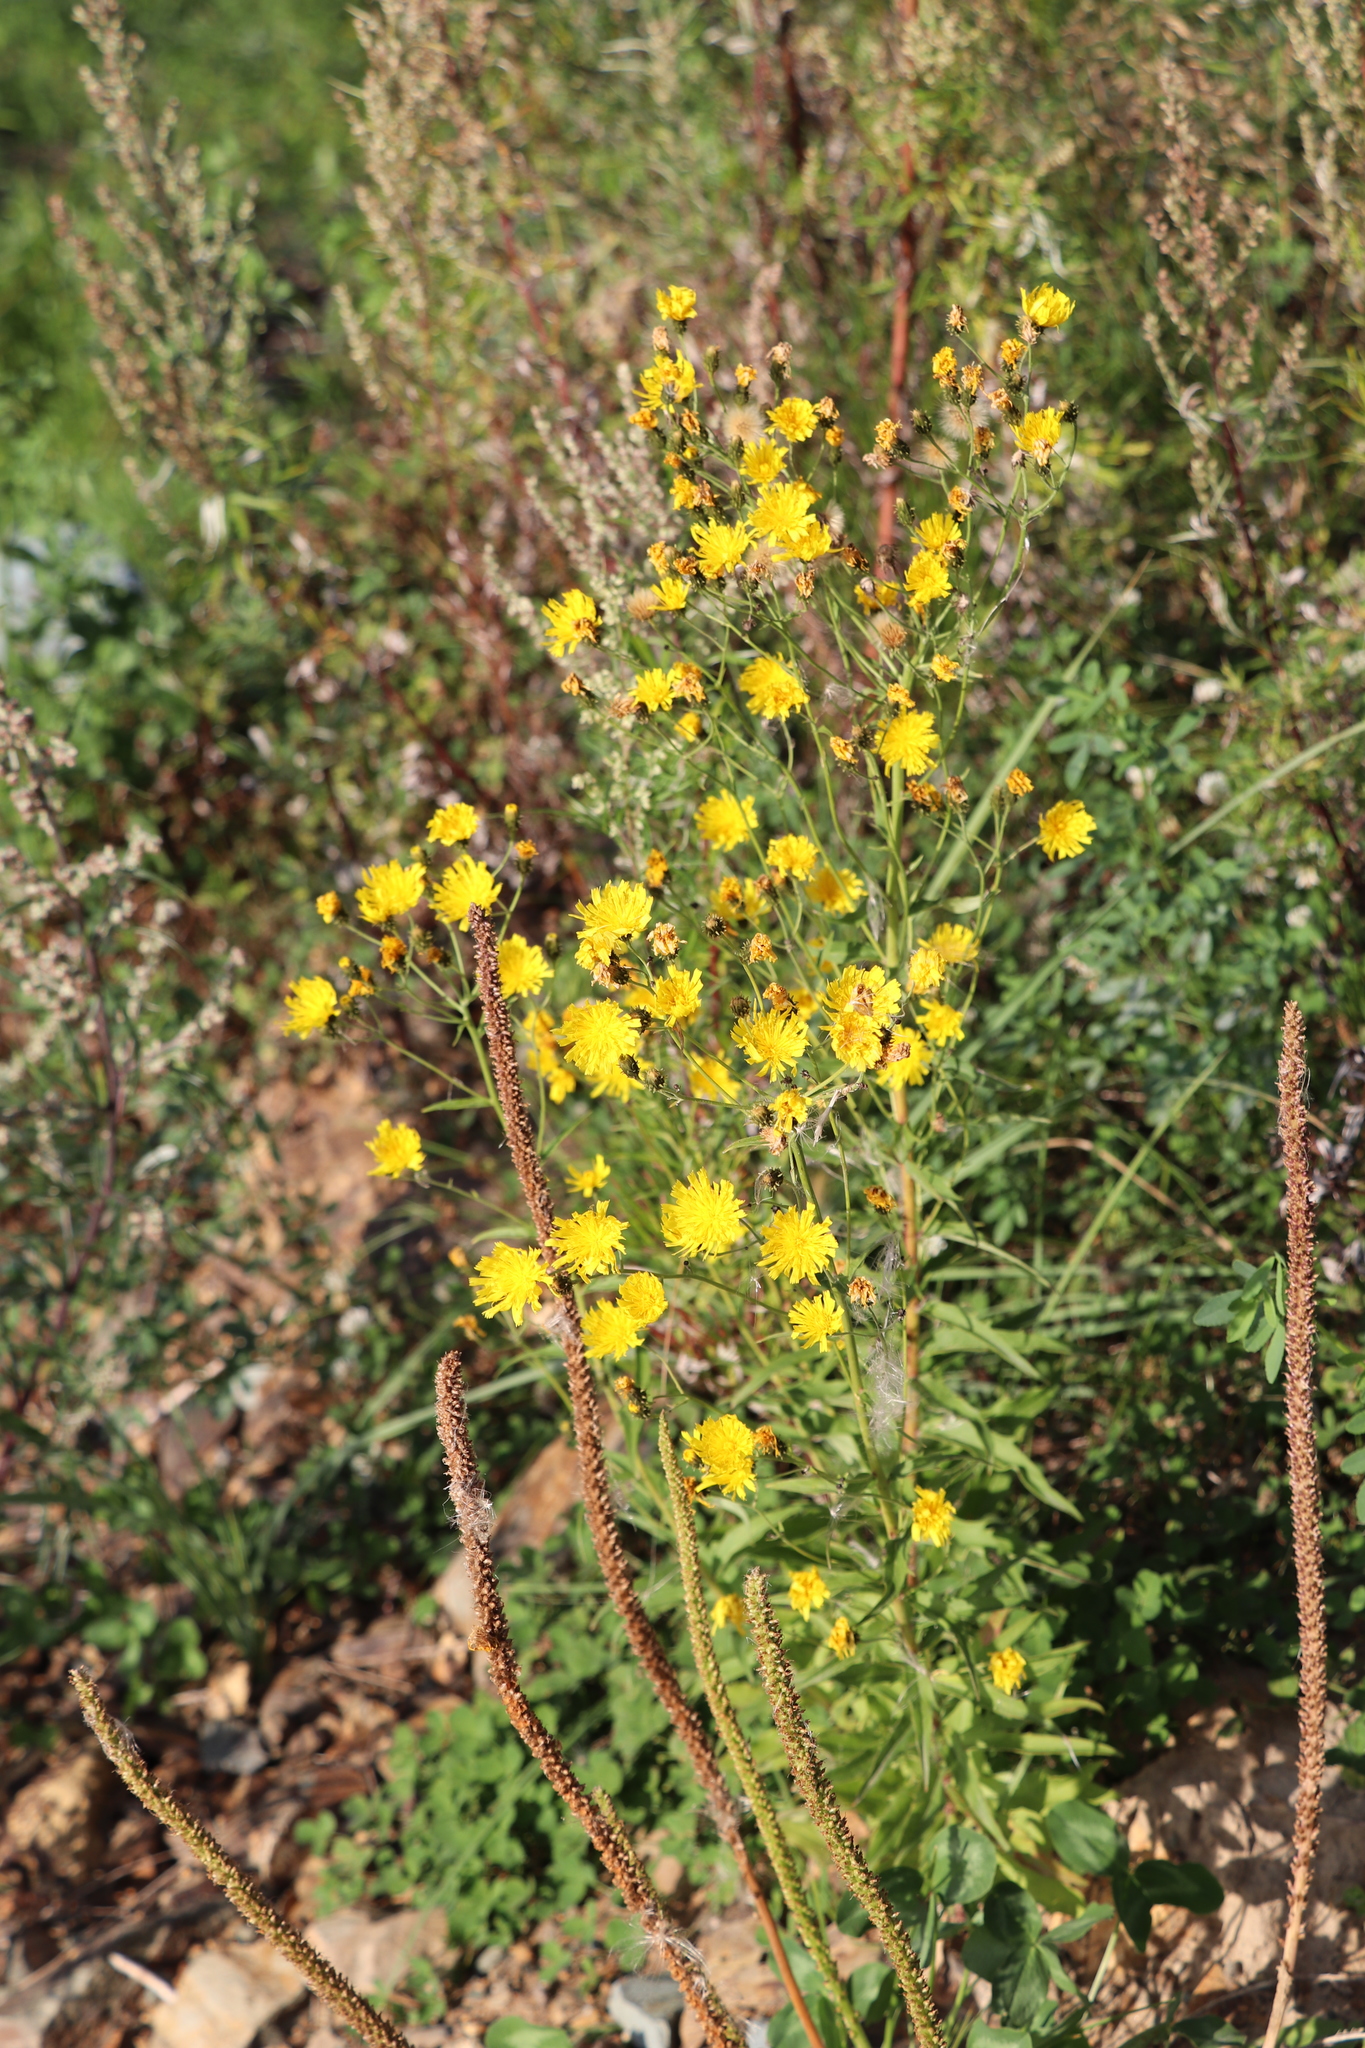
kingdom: Plantae
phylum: Tracheophyta
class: Magnoliopsida
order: Asterales
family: Asteraceae
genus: Hieracium
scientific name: Hieracium umbellatum
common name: Northern hawkweed
